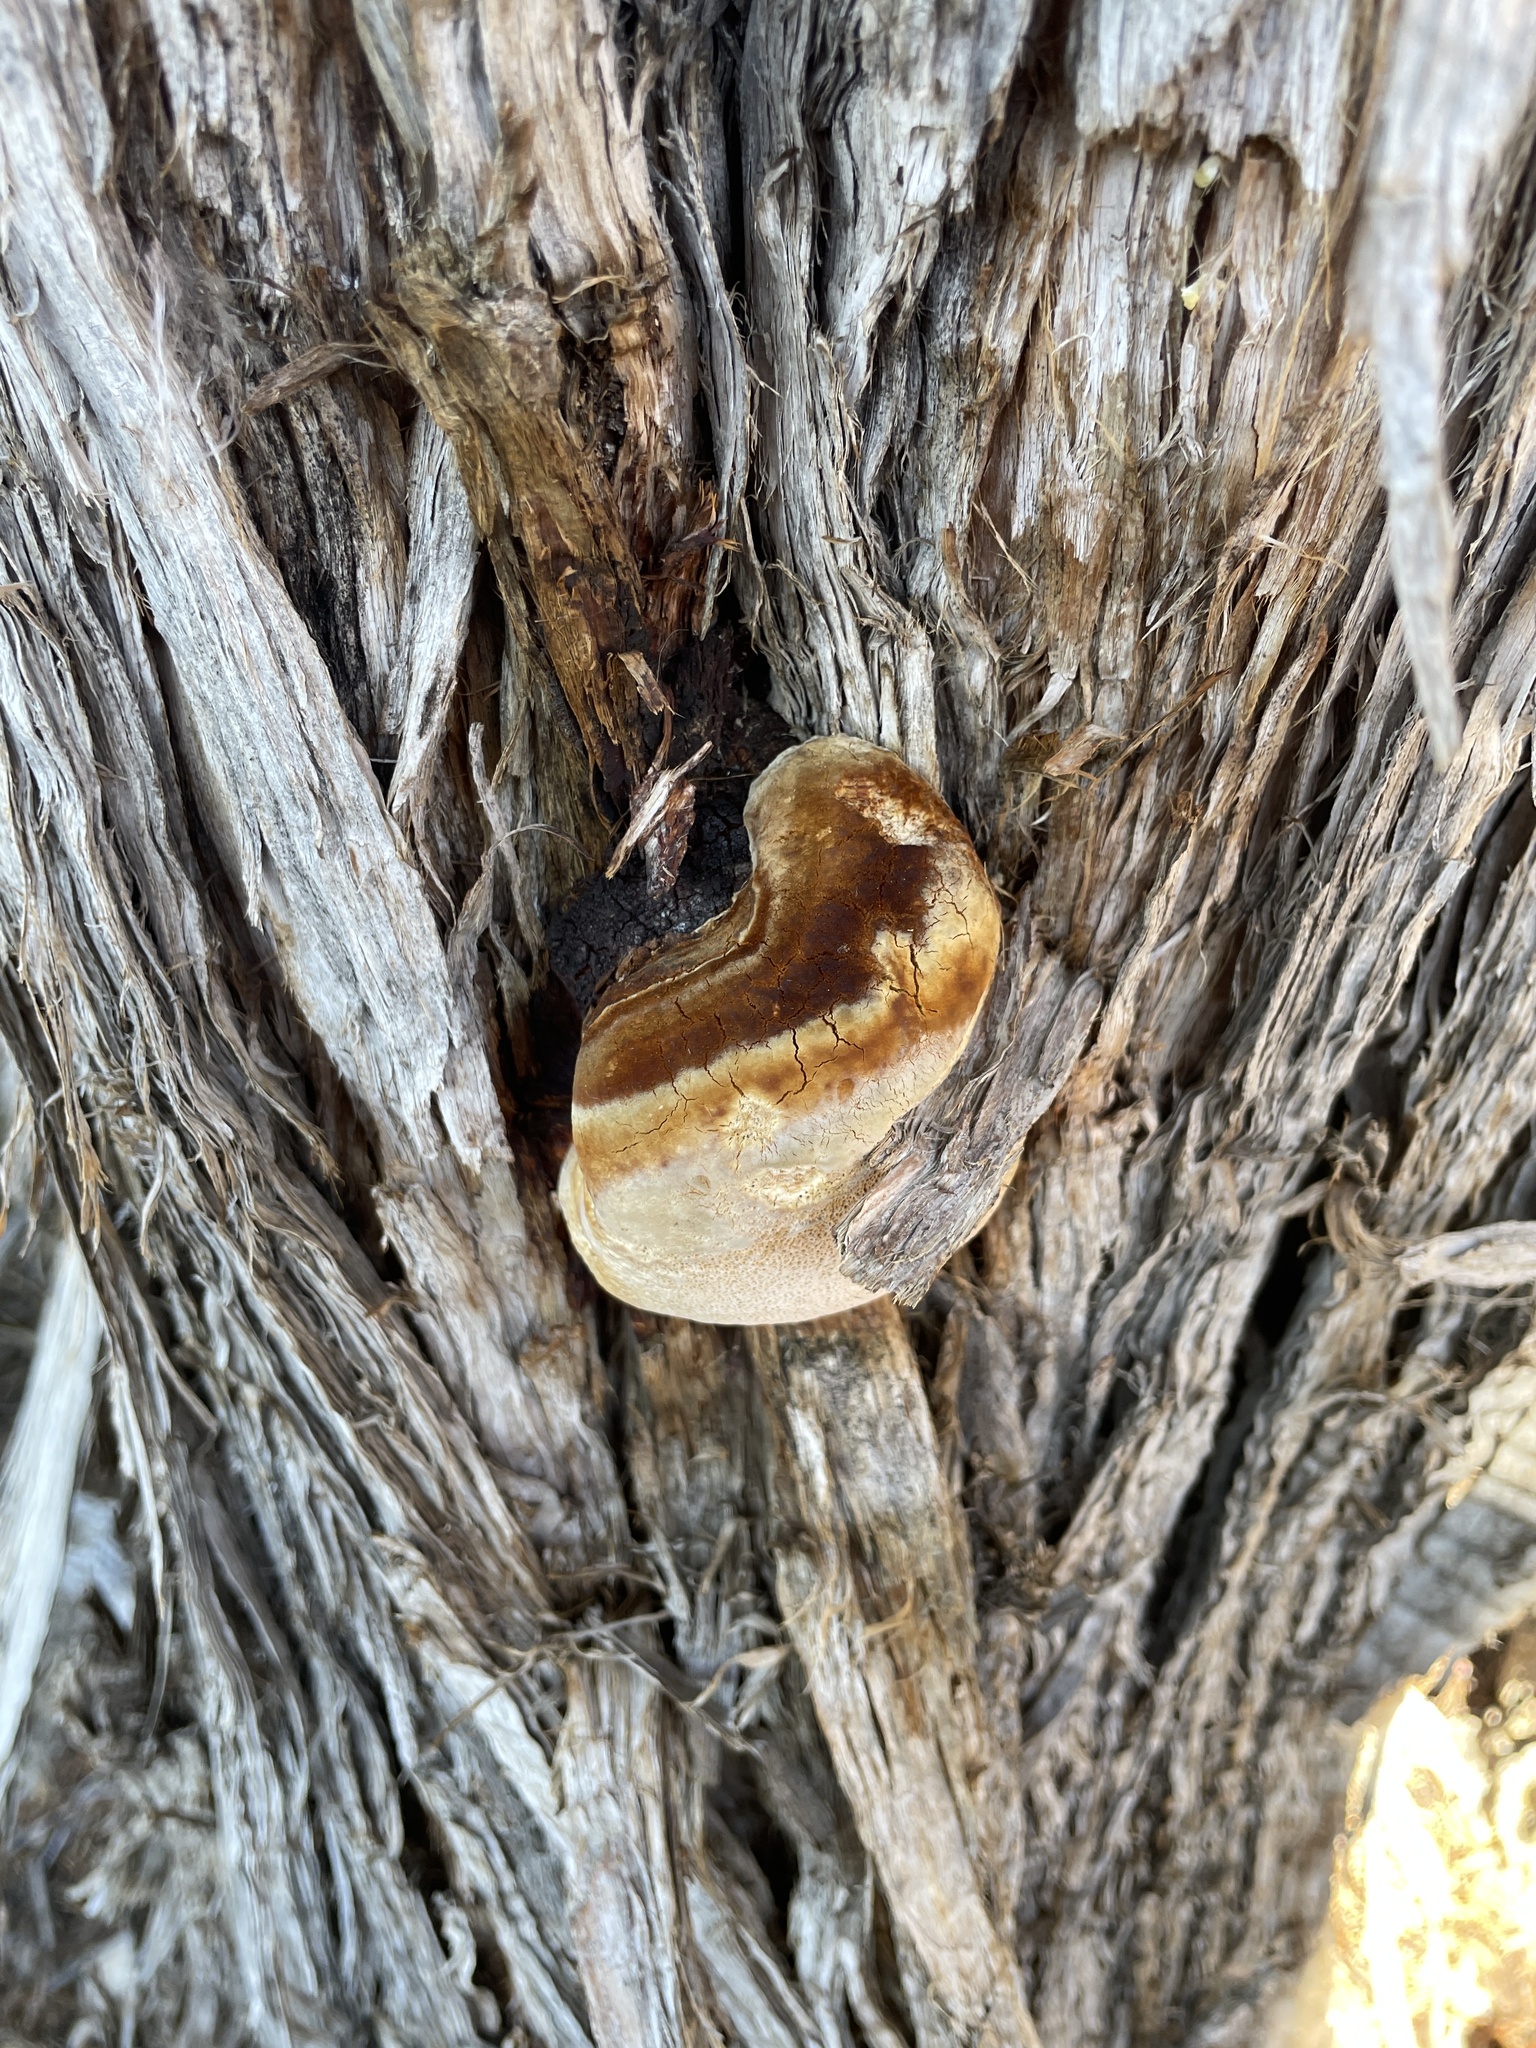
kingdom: Fungi
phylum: Basidiomycota
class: Agaricomycetes
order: Polyporales
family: Polyporaceae
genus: Pyrofomes
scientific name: Pyrofomes juniperinus
